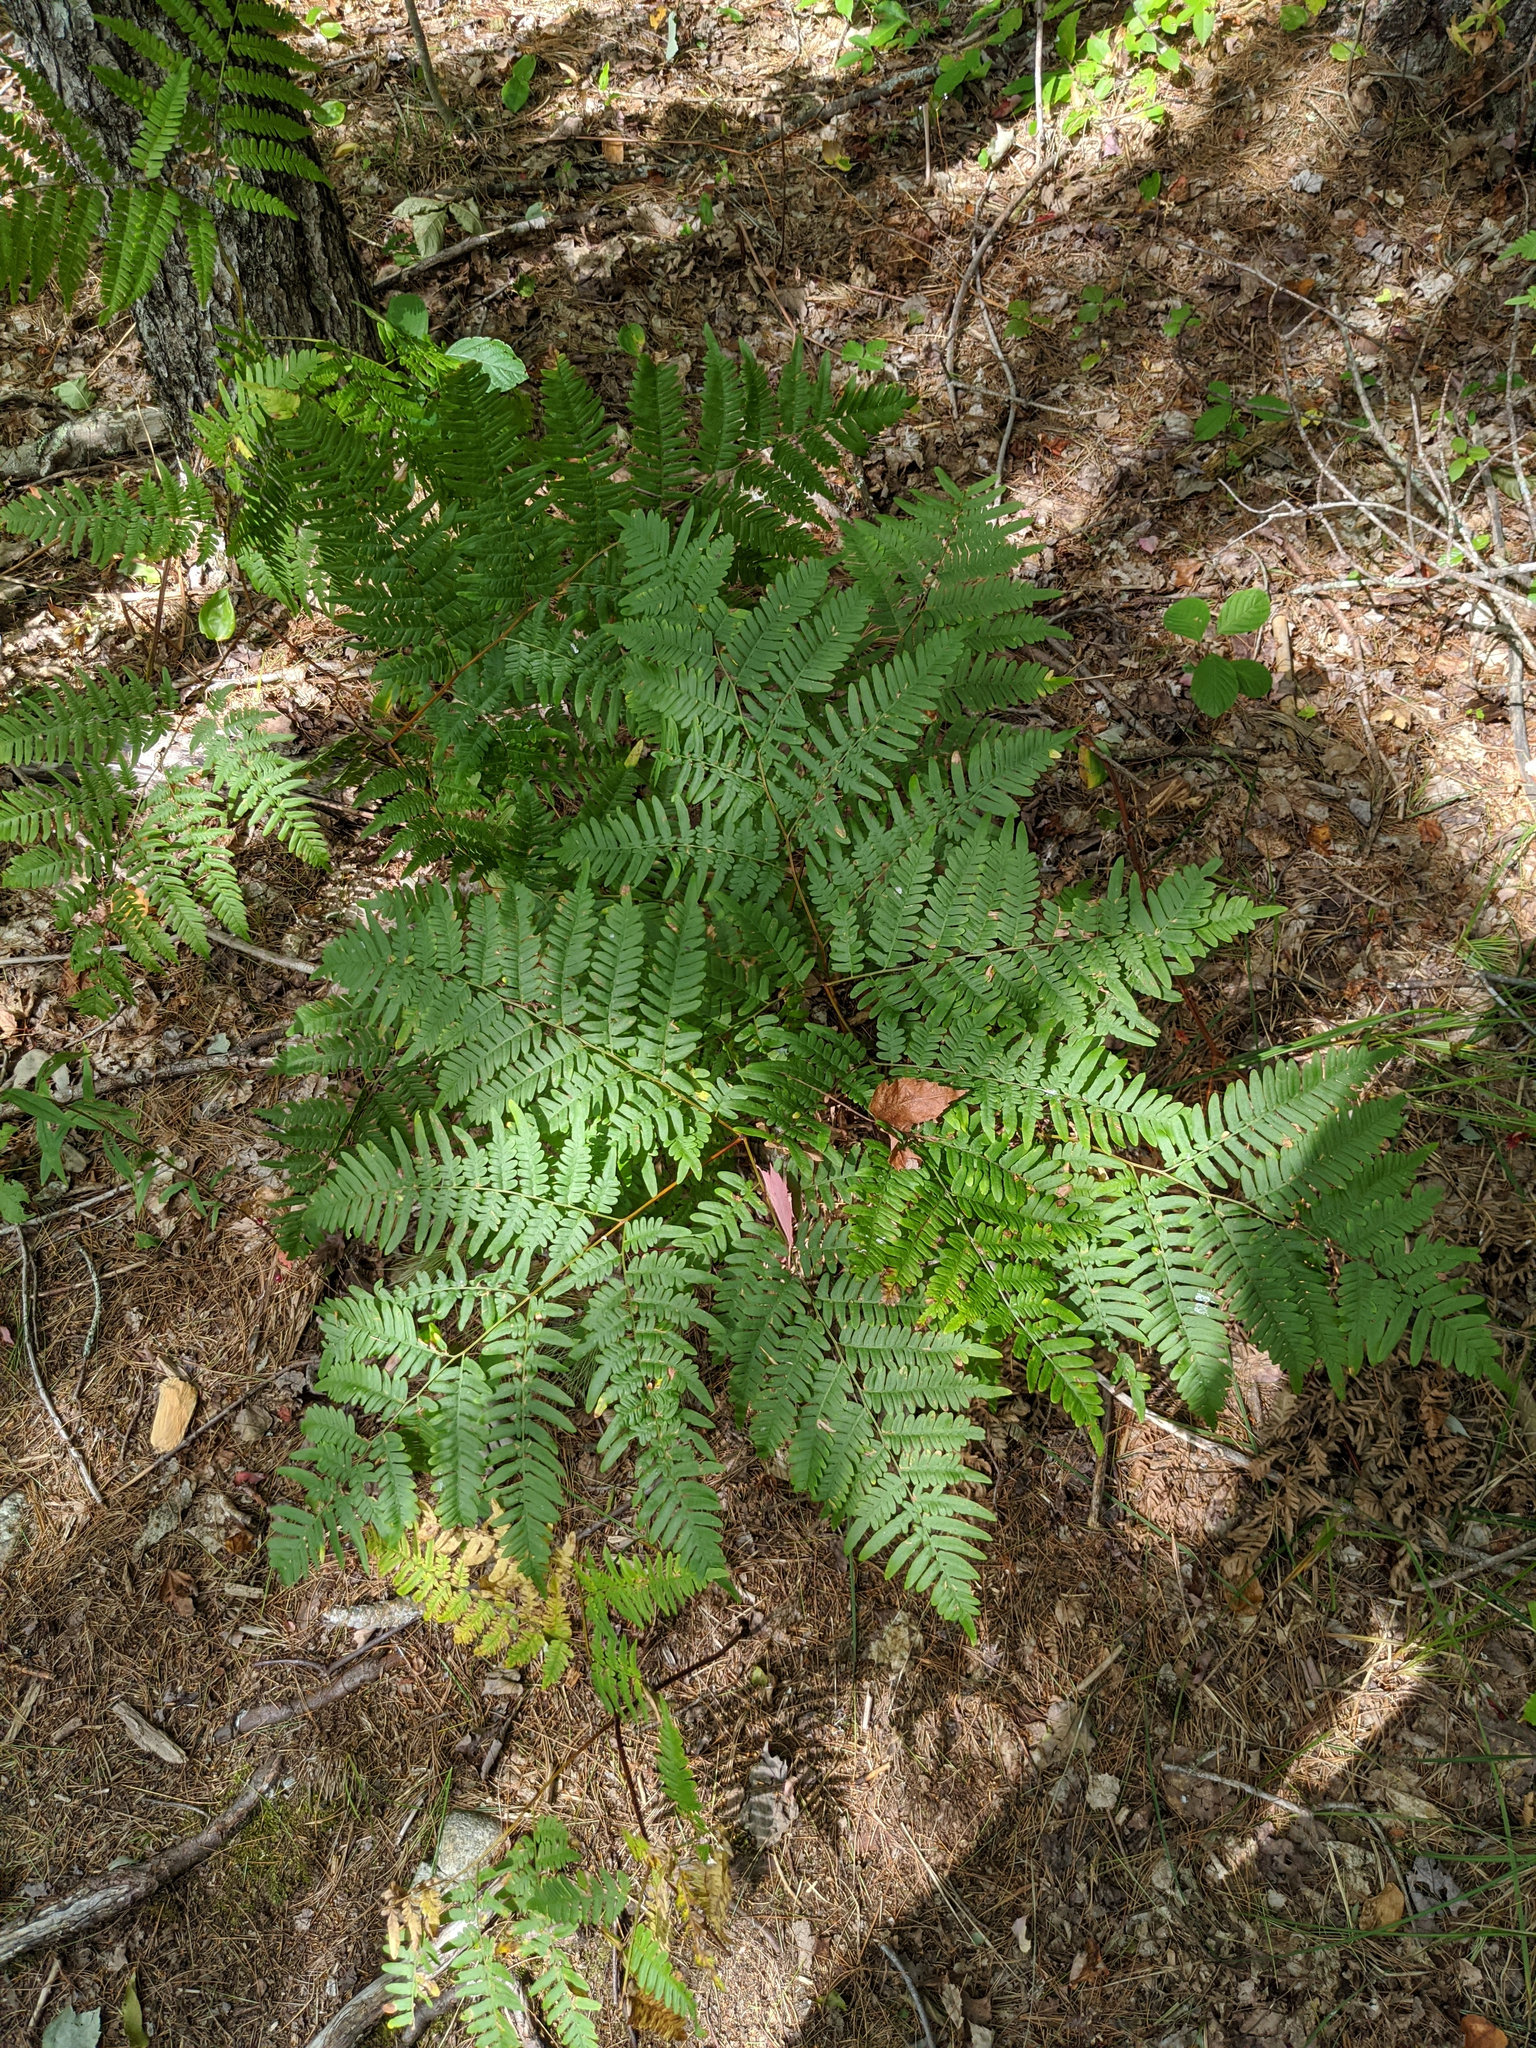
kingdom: Plantae
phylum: Tracheophyta
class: Polypodiopsida
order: Polypodiales
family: Dennstaedtiaceae
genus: Pteridium
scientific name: Pteridium aquilinum
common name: Bracken
